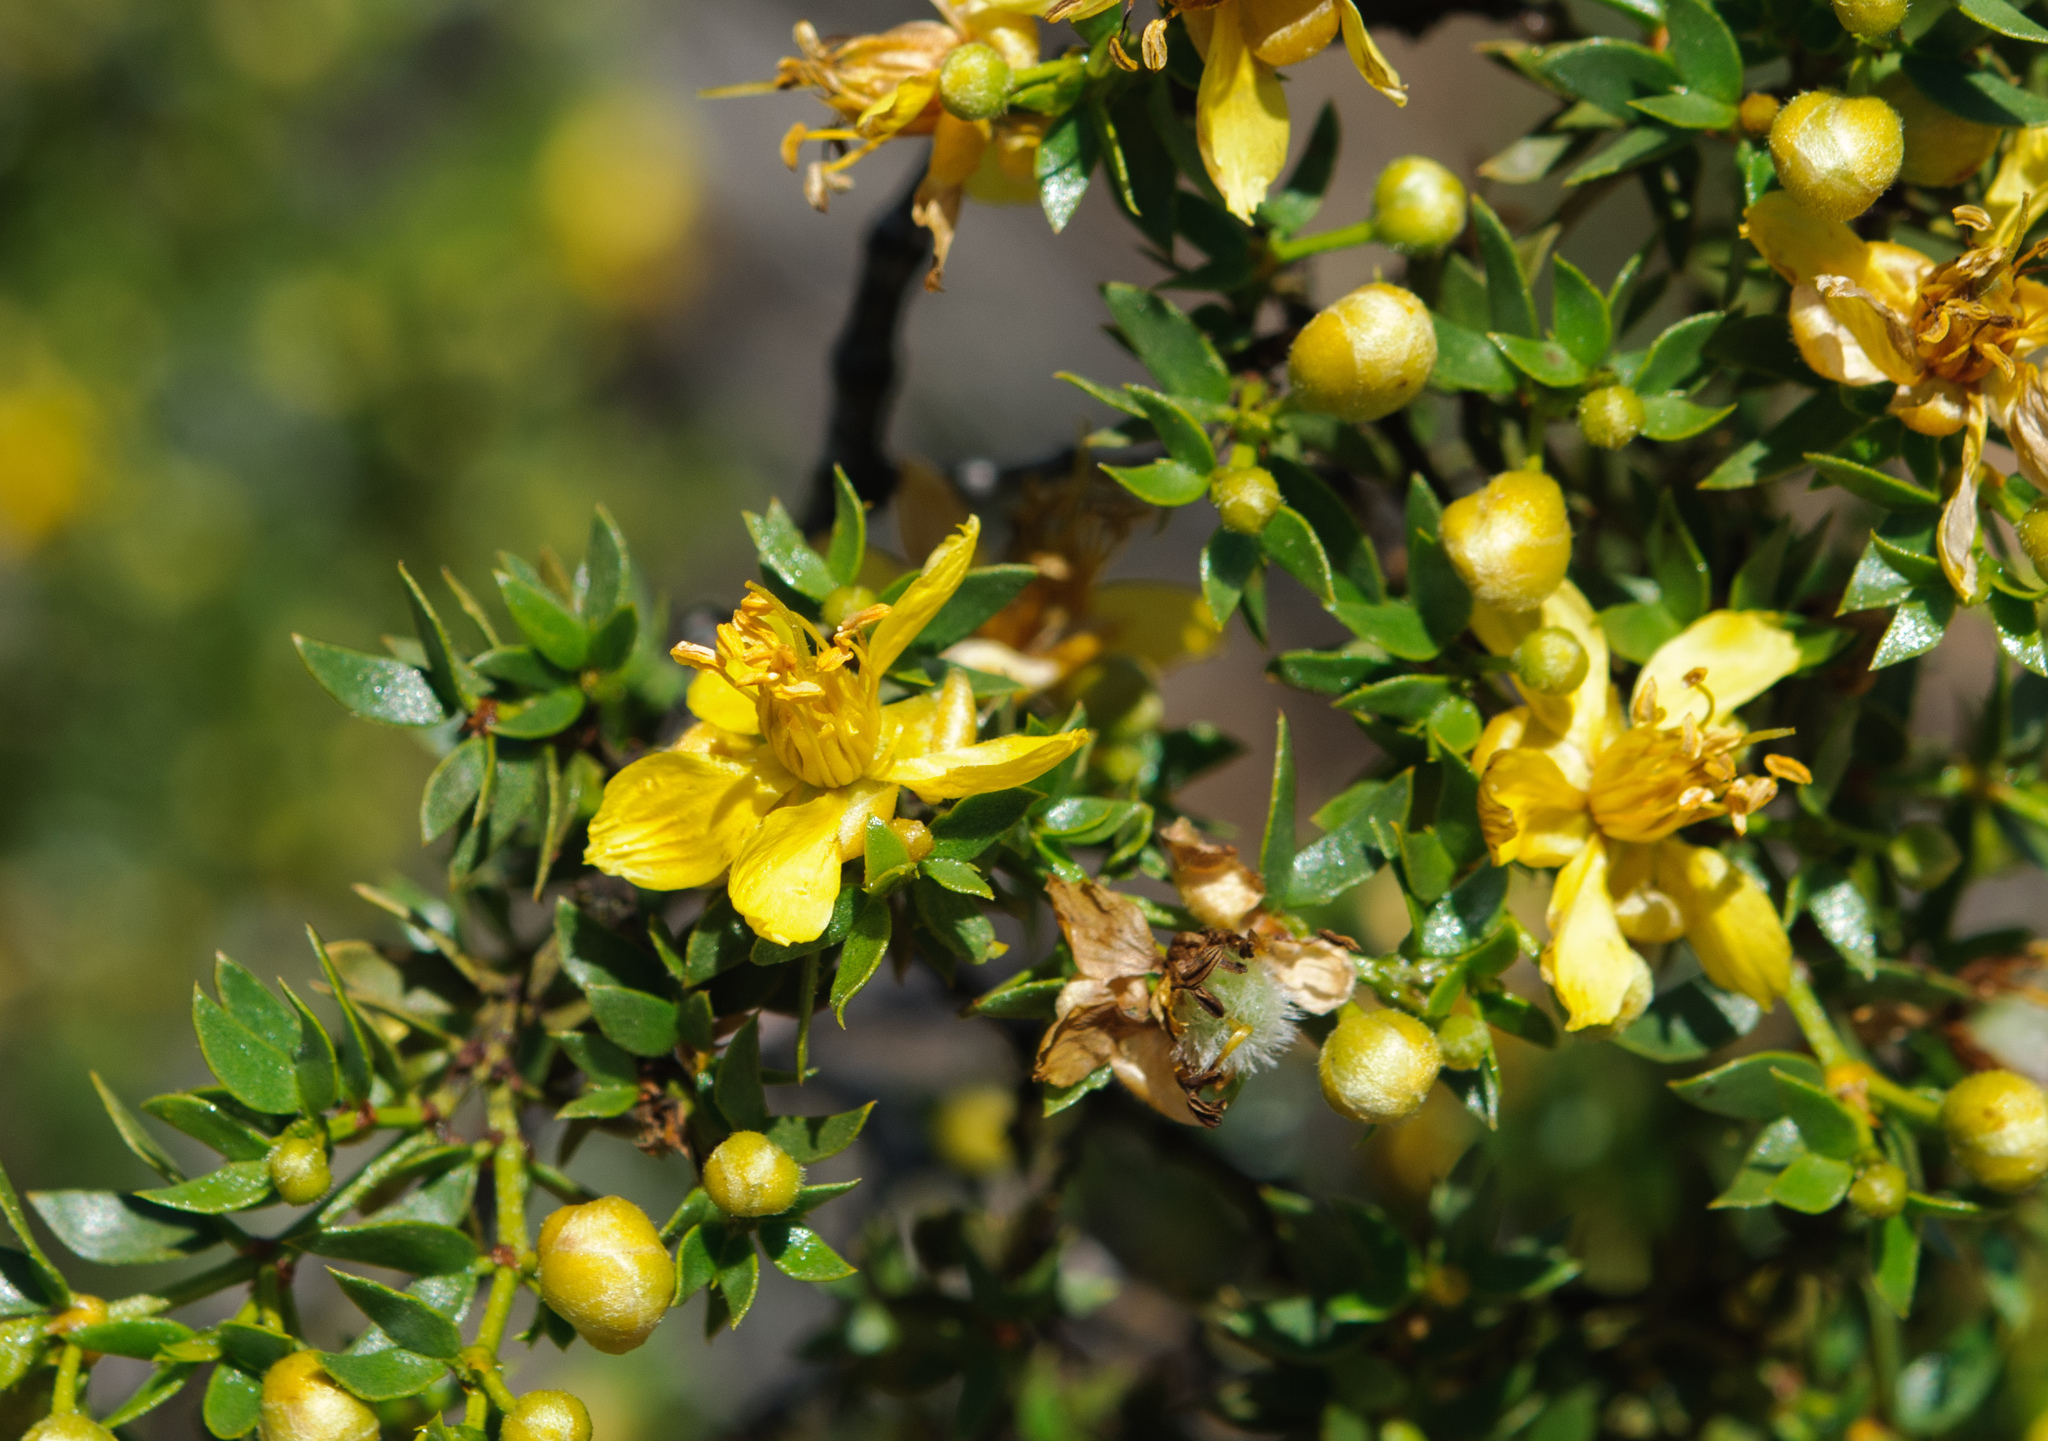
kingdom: Plantae
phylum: Tracheophyta
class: Magnoliopsida
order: Zygophyllales
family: Zygophyllaceae
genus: Larrea
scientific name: Larrea tridentata
